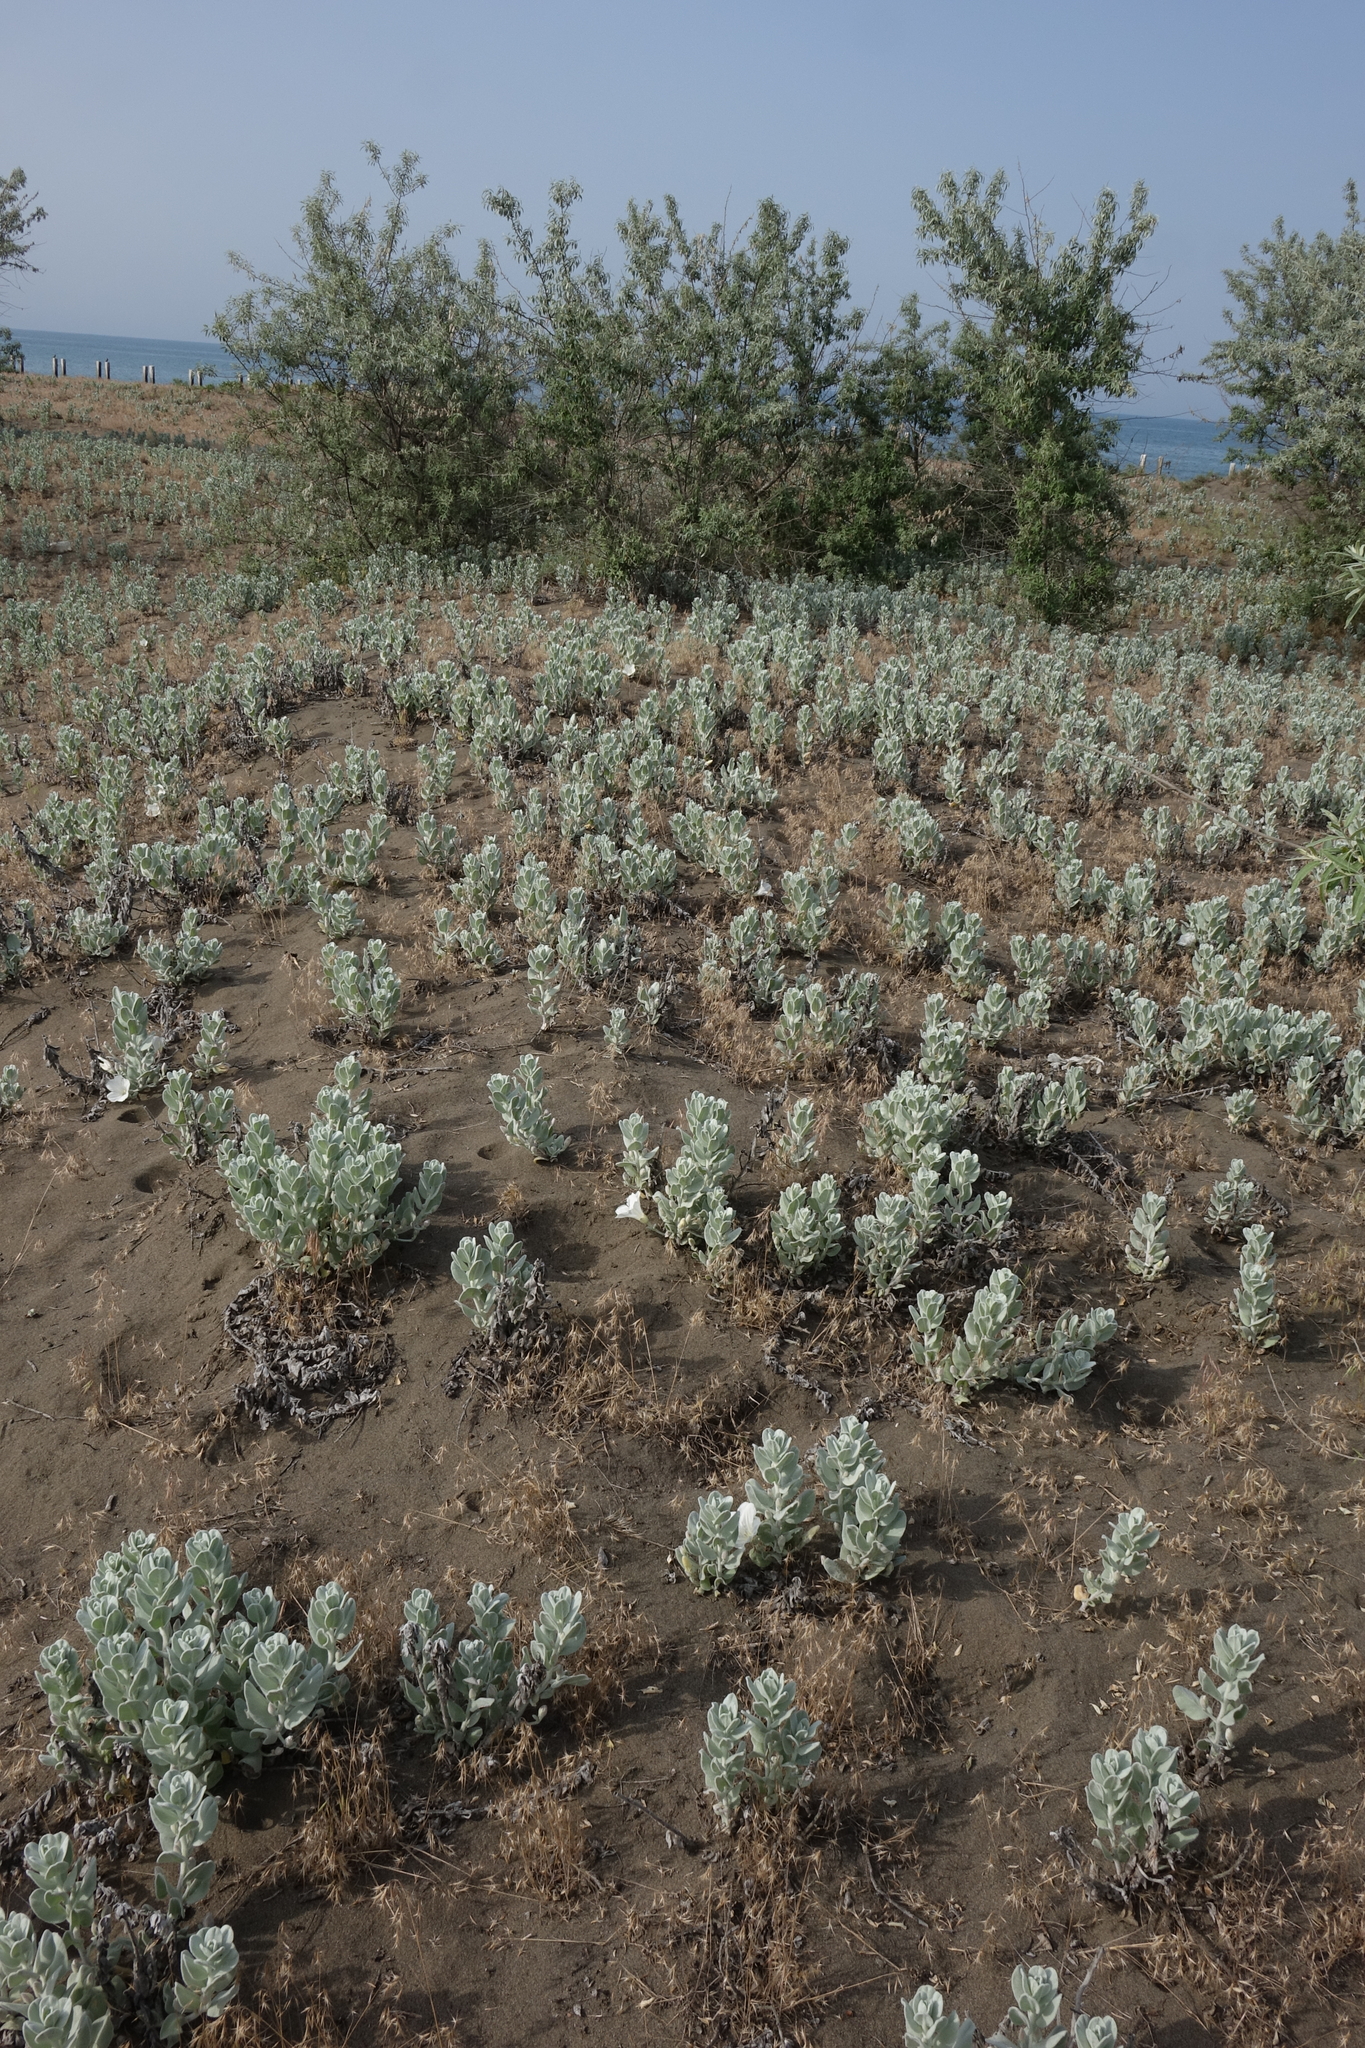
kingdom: Plantae
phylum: Tracheophyta
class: Magnoliopsida
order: Solanales
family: Convolvulaceae
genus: Convolvulus
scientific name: Convolvulus persicus
